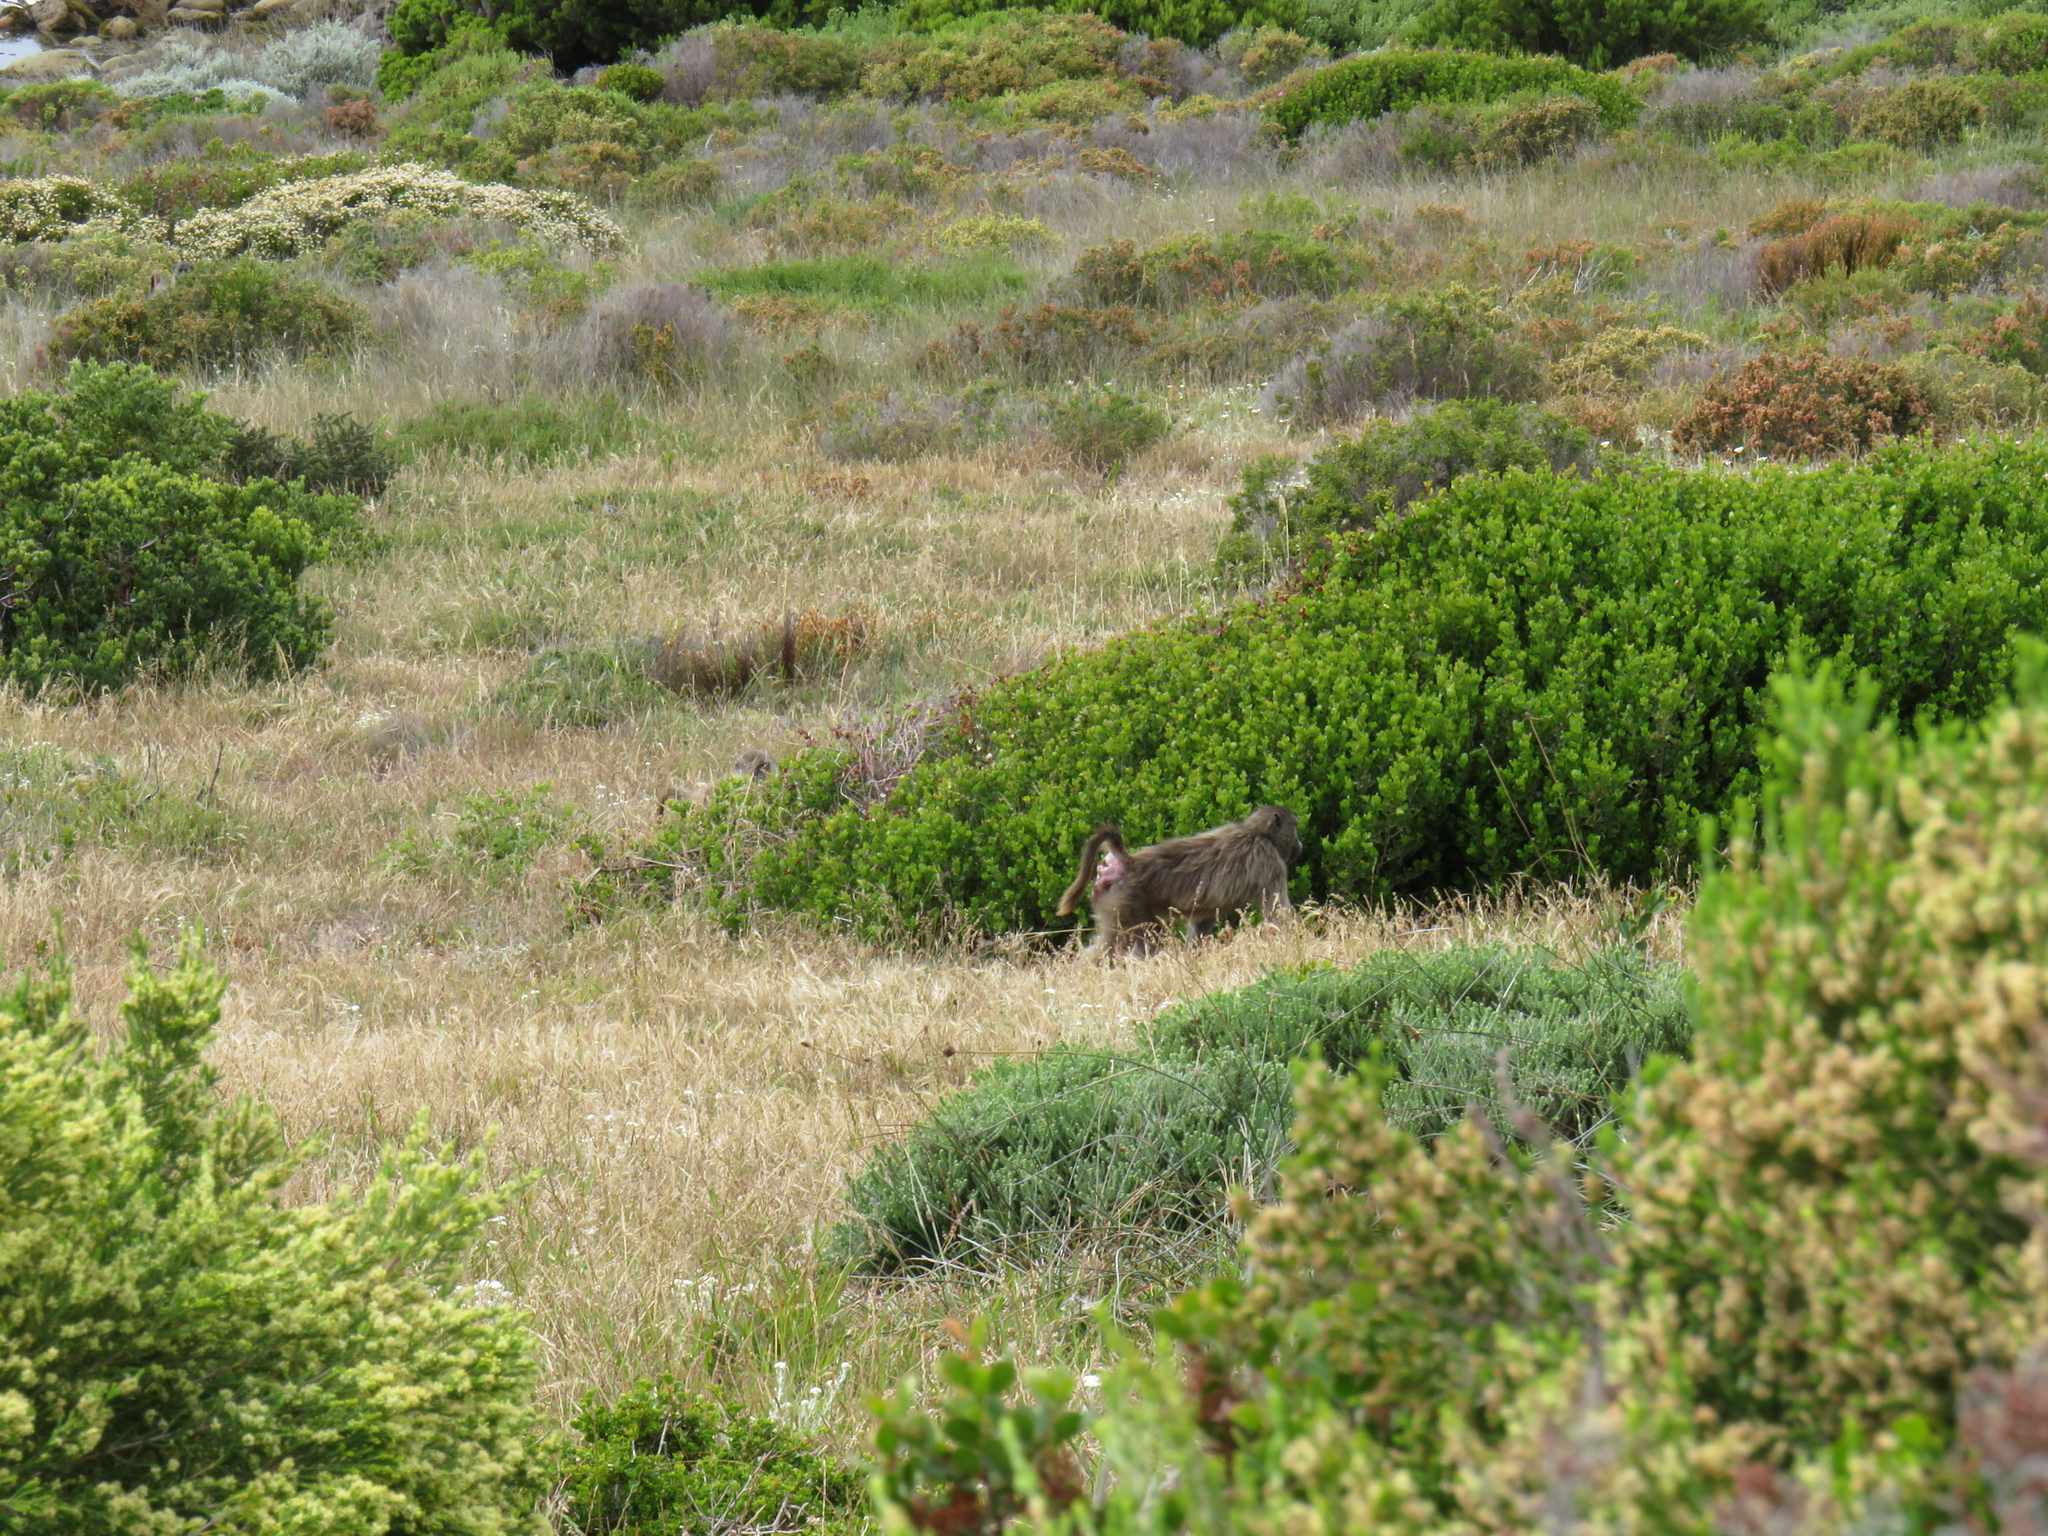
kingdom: Animalia
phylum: Chordata
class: Mammalia
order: Primates
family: Cercopithecidae
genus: Papio
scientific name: Papio ursinus
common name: Chacma baboon
